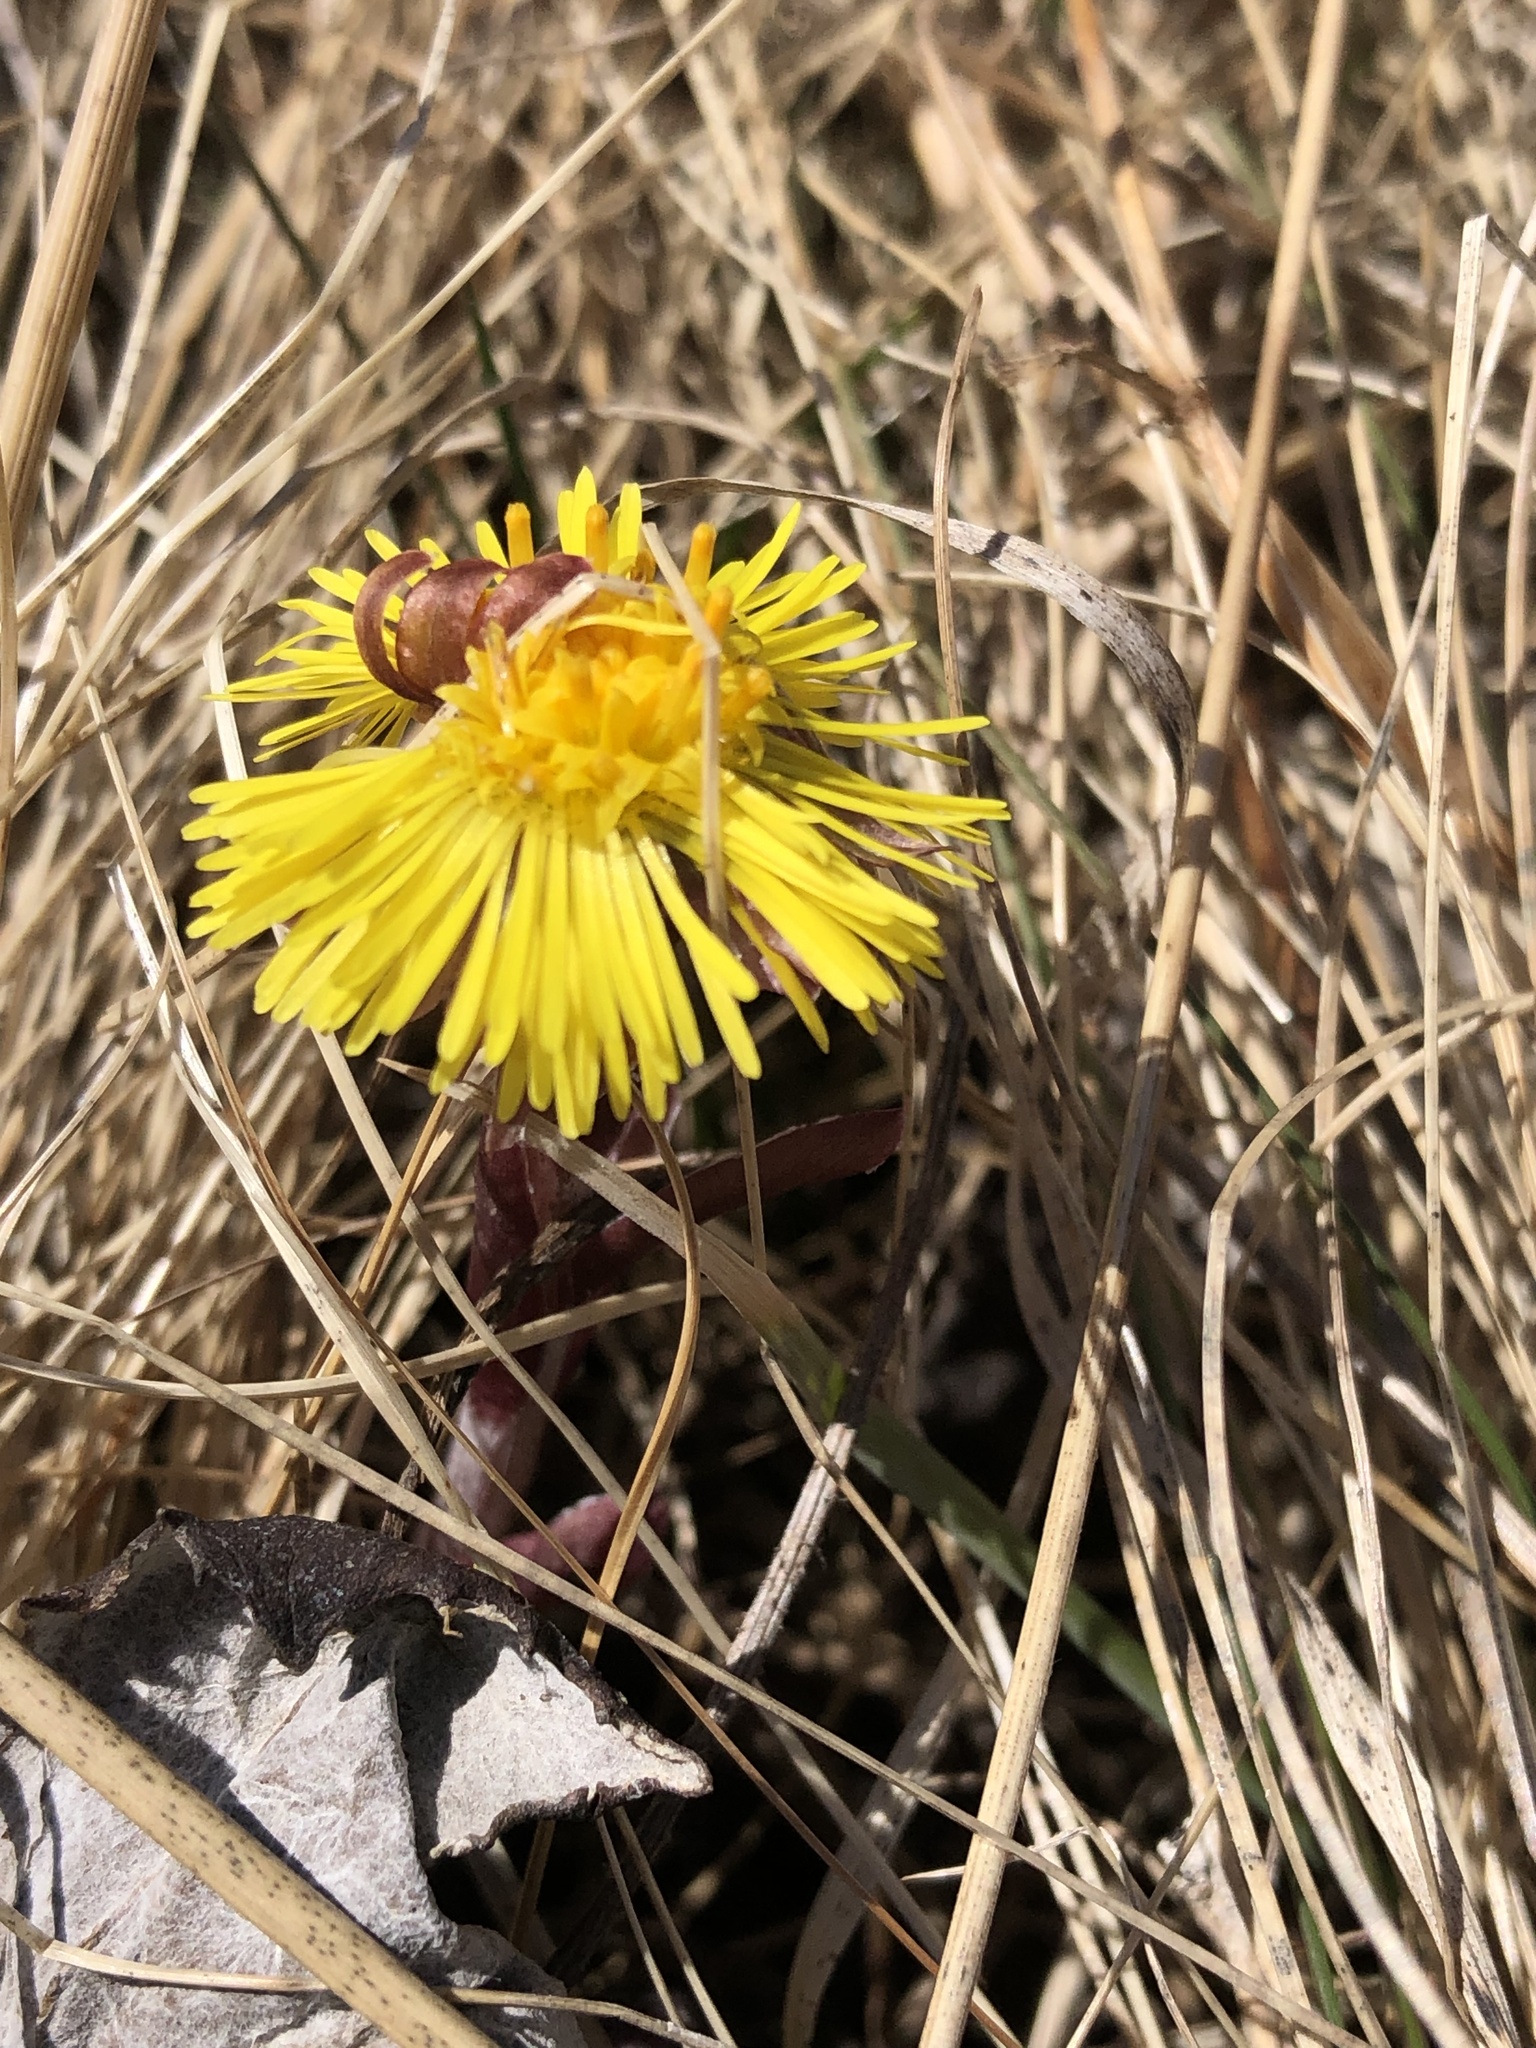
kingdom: Plantae
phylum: Tracheophyta
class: Magnoliopsida
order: Asterales
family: Asteraceae
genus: Tussilago
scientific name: Tussilago farfara
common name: Coltsfoot
